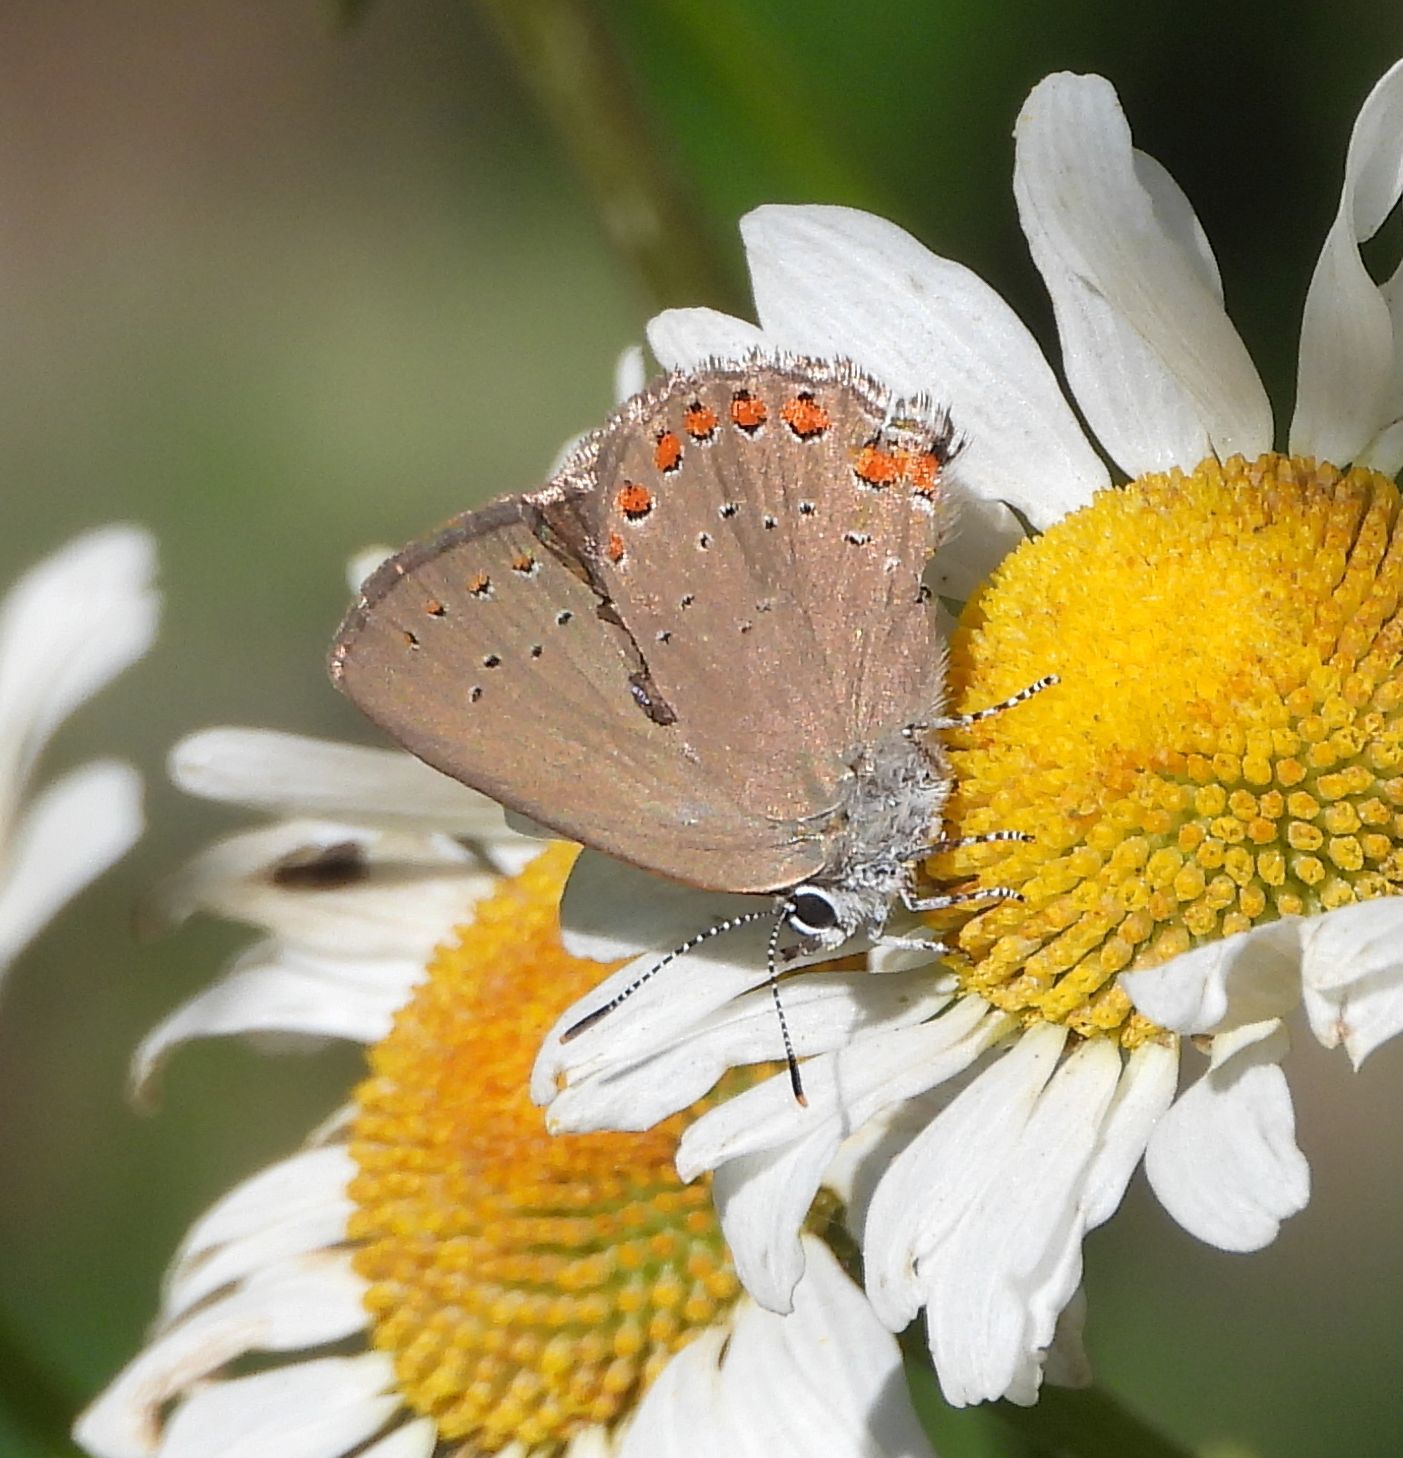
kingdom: Animalia
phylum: Arthropoda
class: Insecta
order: Lepidoptera
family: Lycaenidae
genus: Harkenclenus
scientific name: Harkenclenus titus
